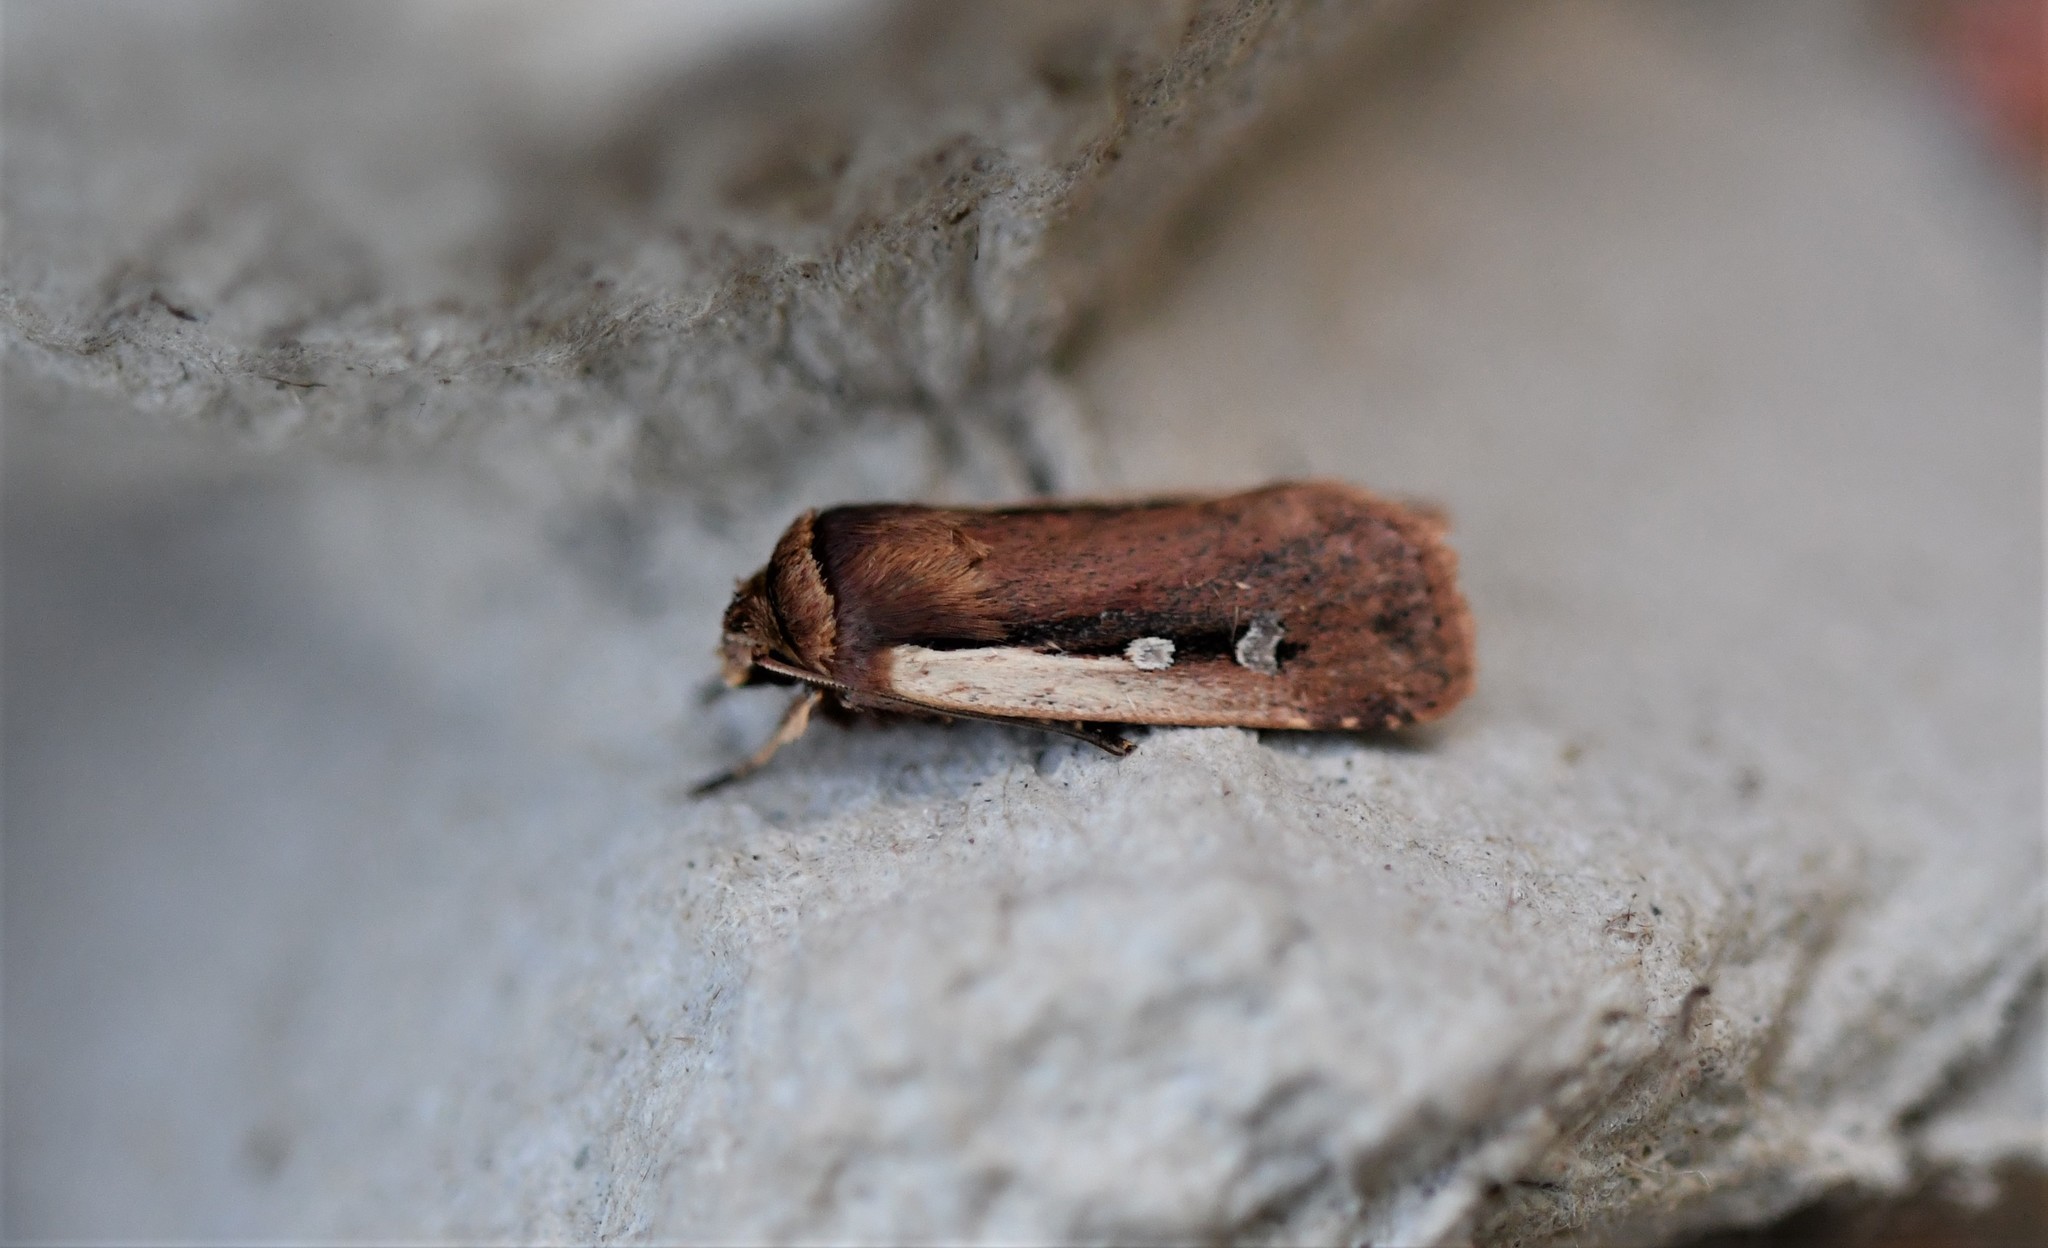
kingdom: Animalia
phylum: Arthropoda
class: Insecta
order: Lepidoptera
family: Noctuidae
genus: Ochropleura
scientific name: Ochropleura plecta
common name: Flame shoulder
